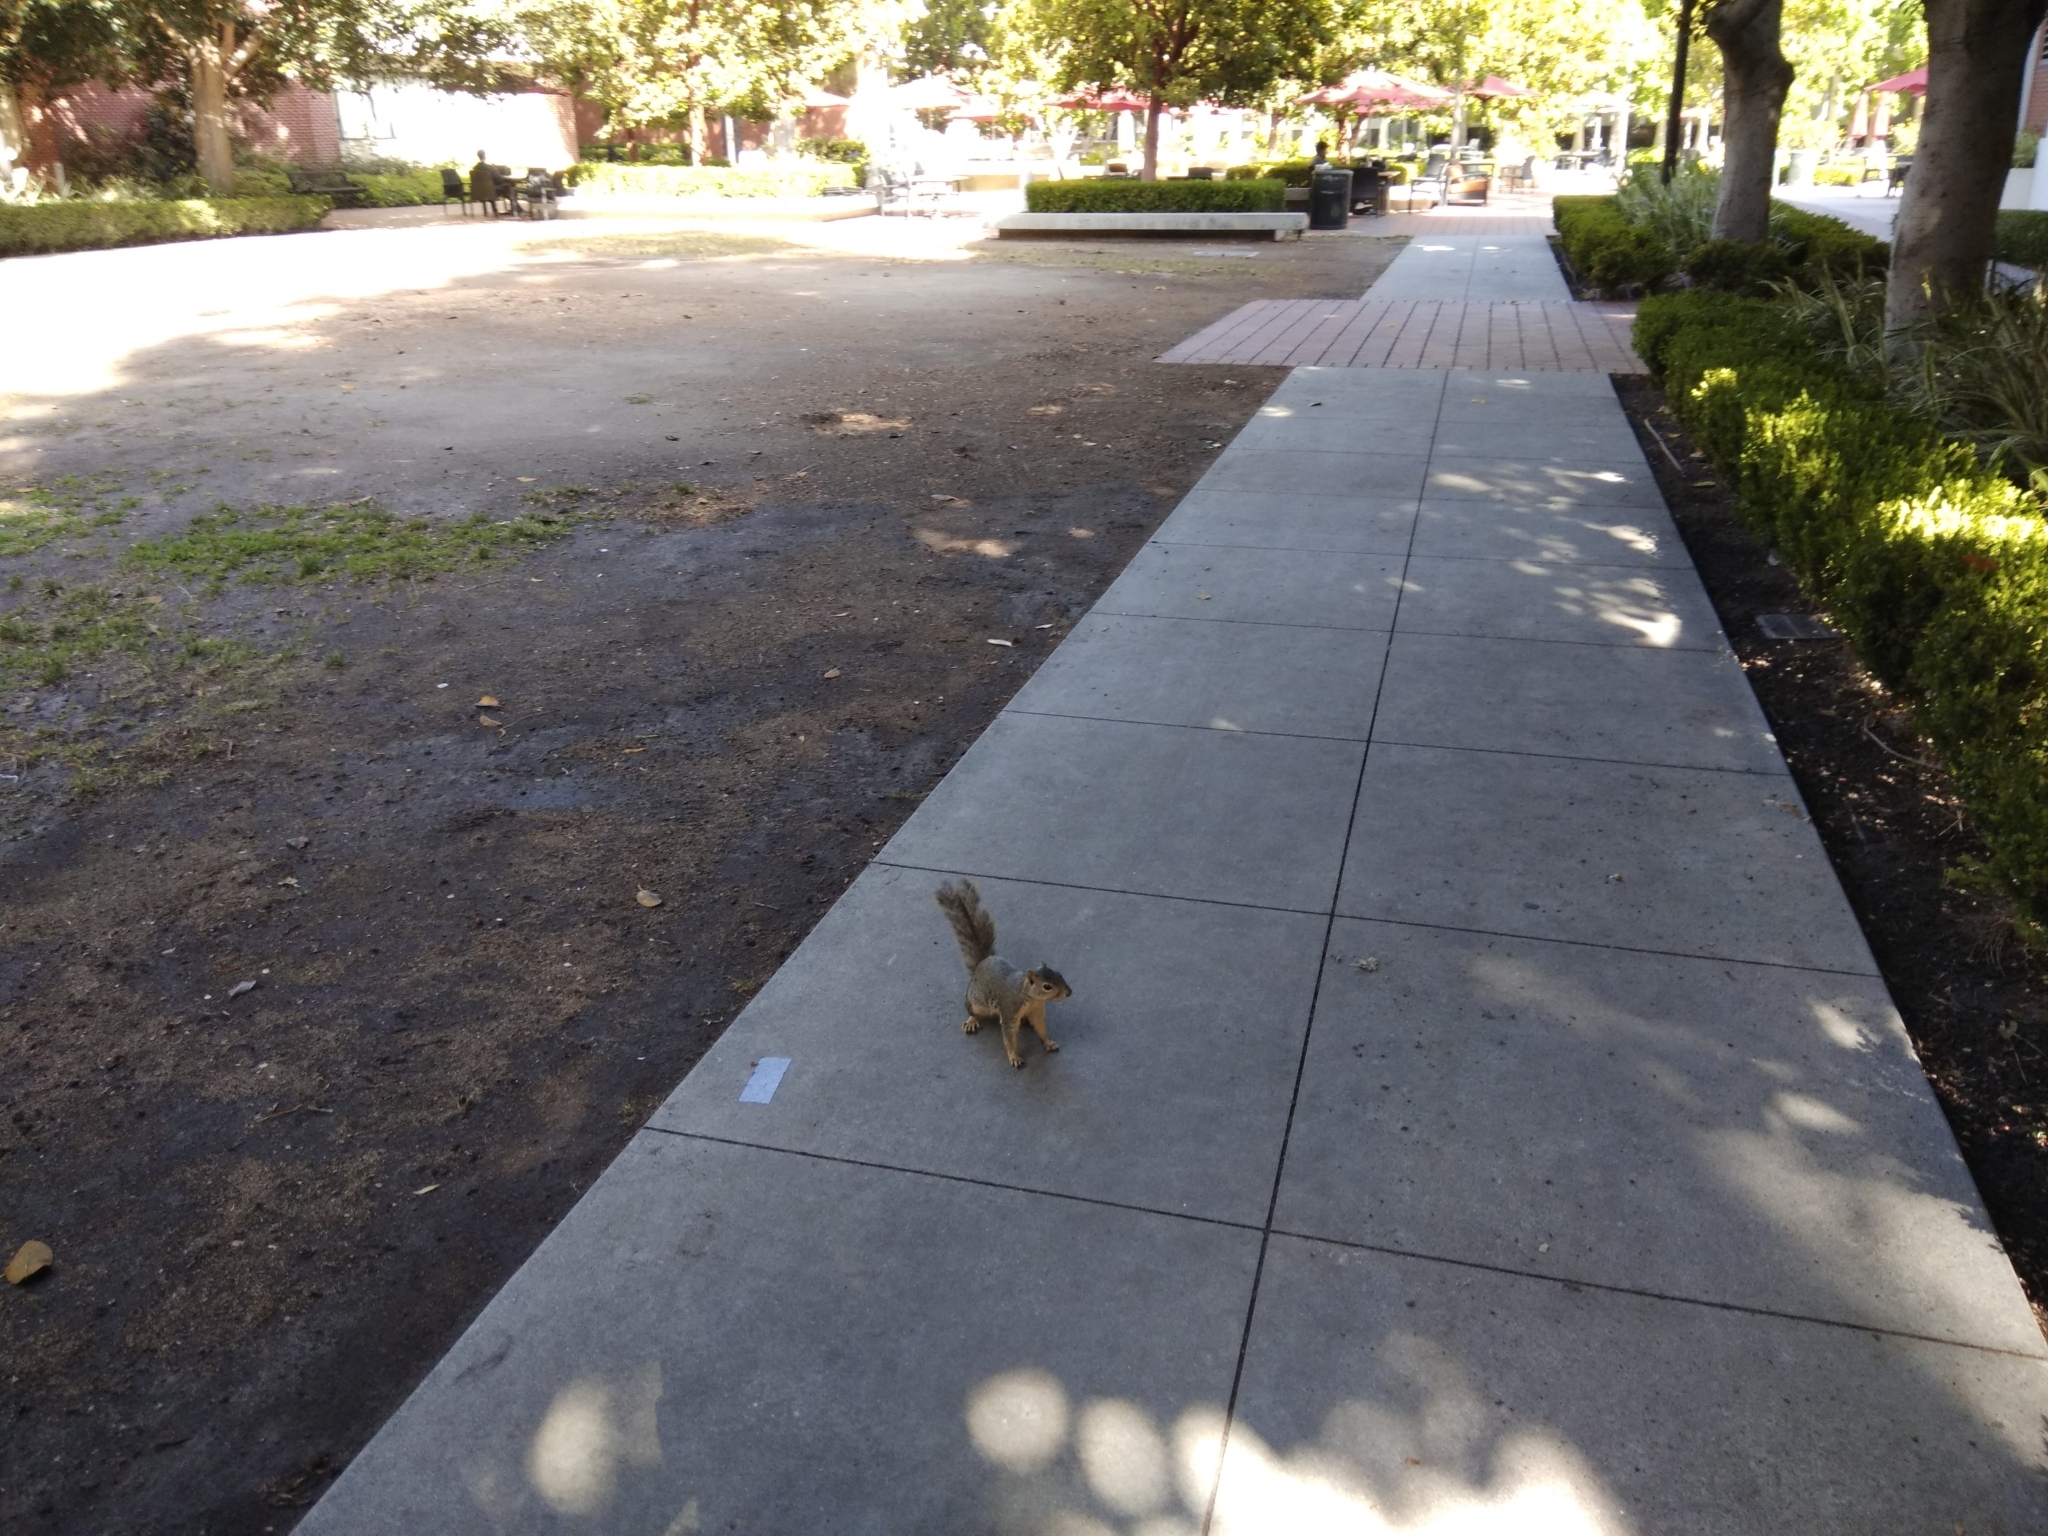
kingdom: Animalia
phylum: Chordata
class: Mammalia
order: Rodentia
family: Sciuridae
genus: Sciurus
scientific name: Sciurus niger
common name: Fox squirrel
